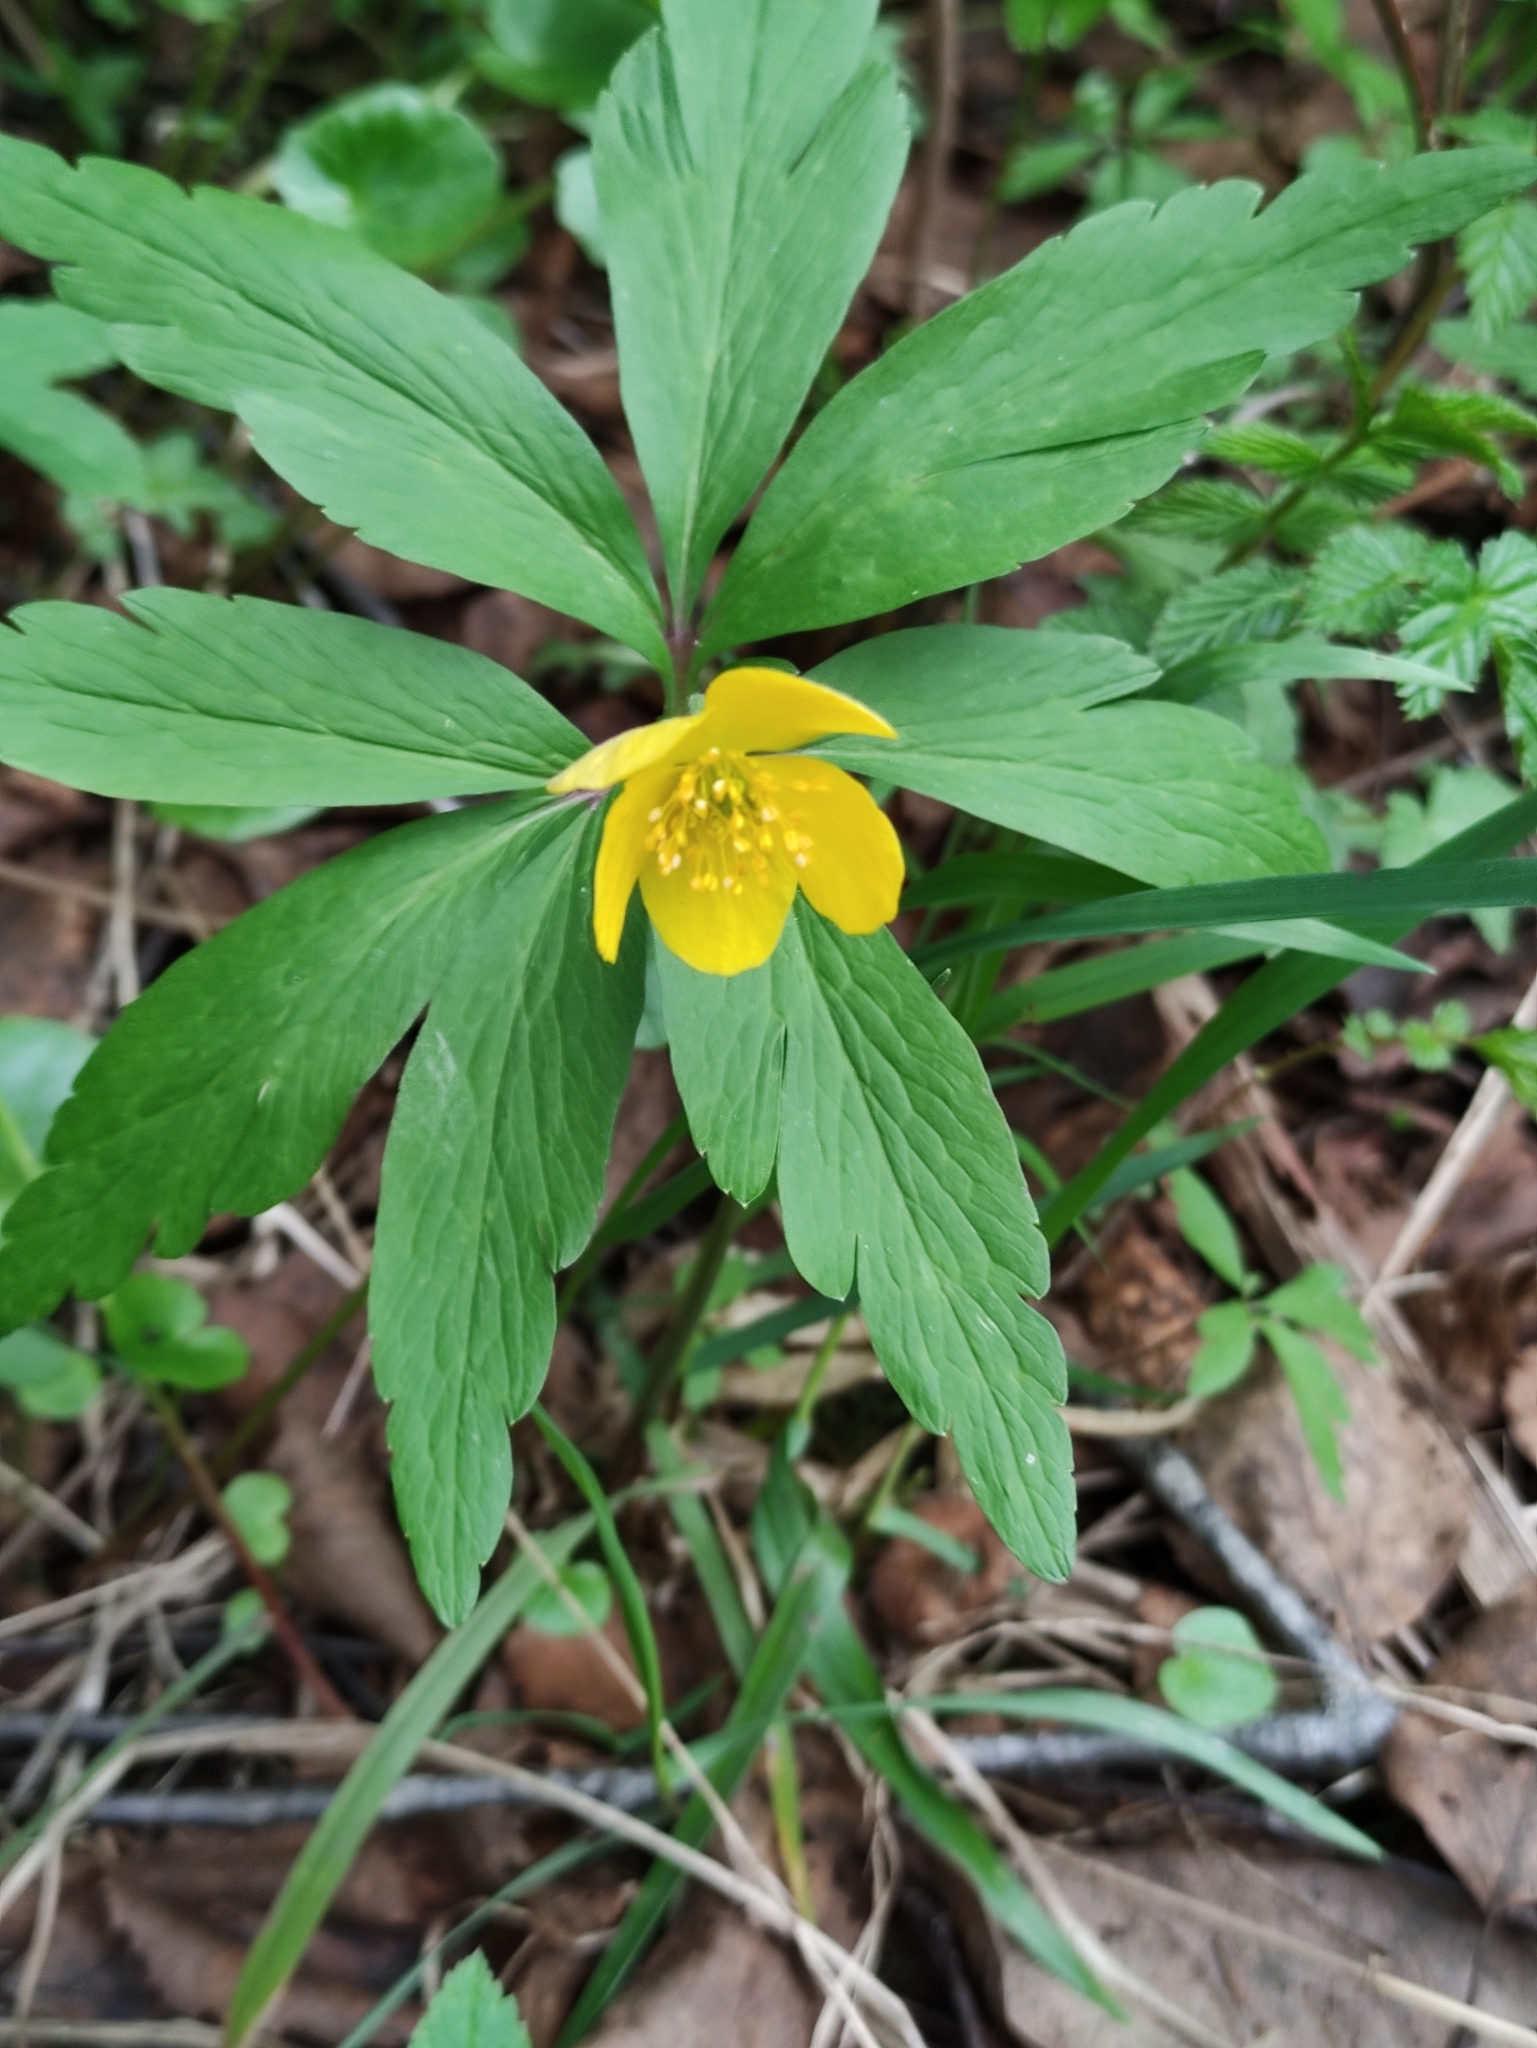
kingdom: Plantae
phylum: Tracheophyta
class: Magnoliopsida
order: Ranunculales
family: Ranunculaceae
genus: Anemone
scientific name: Anemone ranunculoides
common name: Yellow anemone
